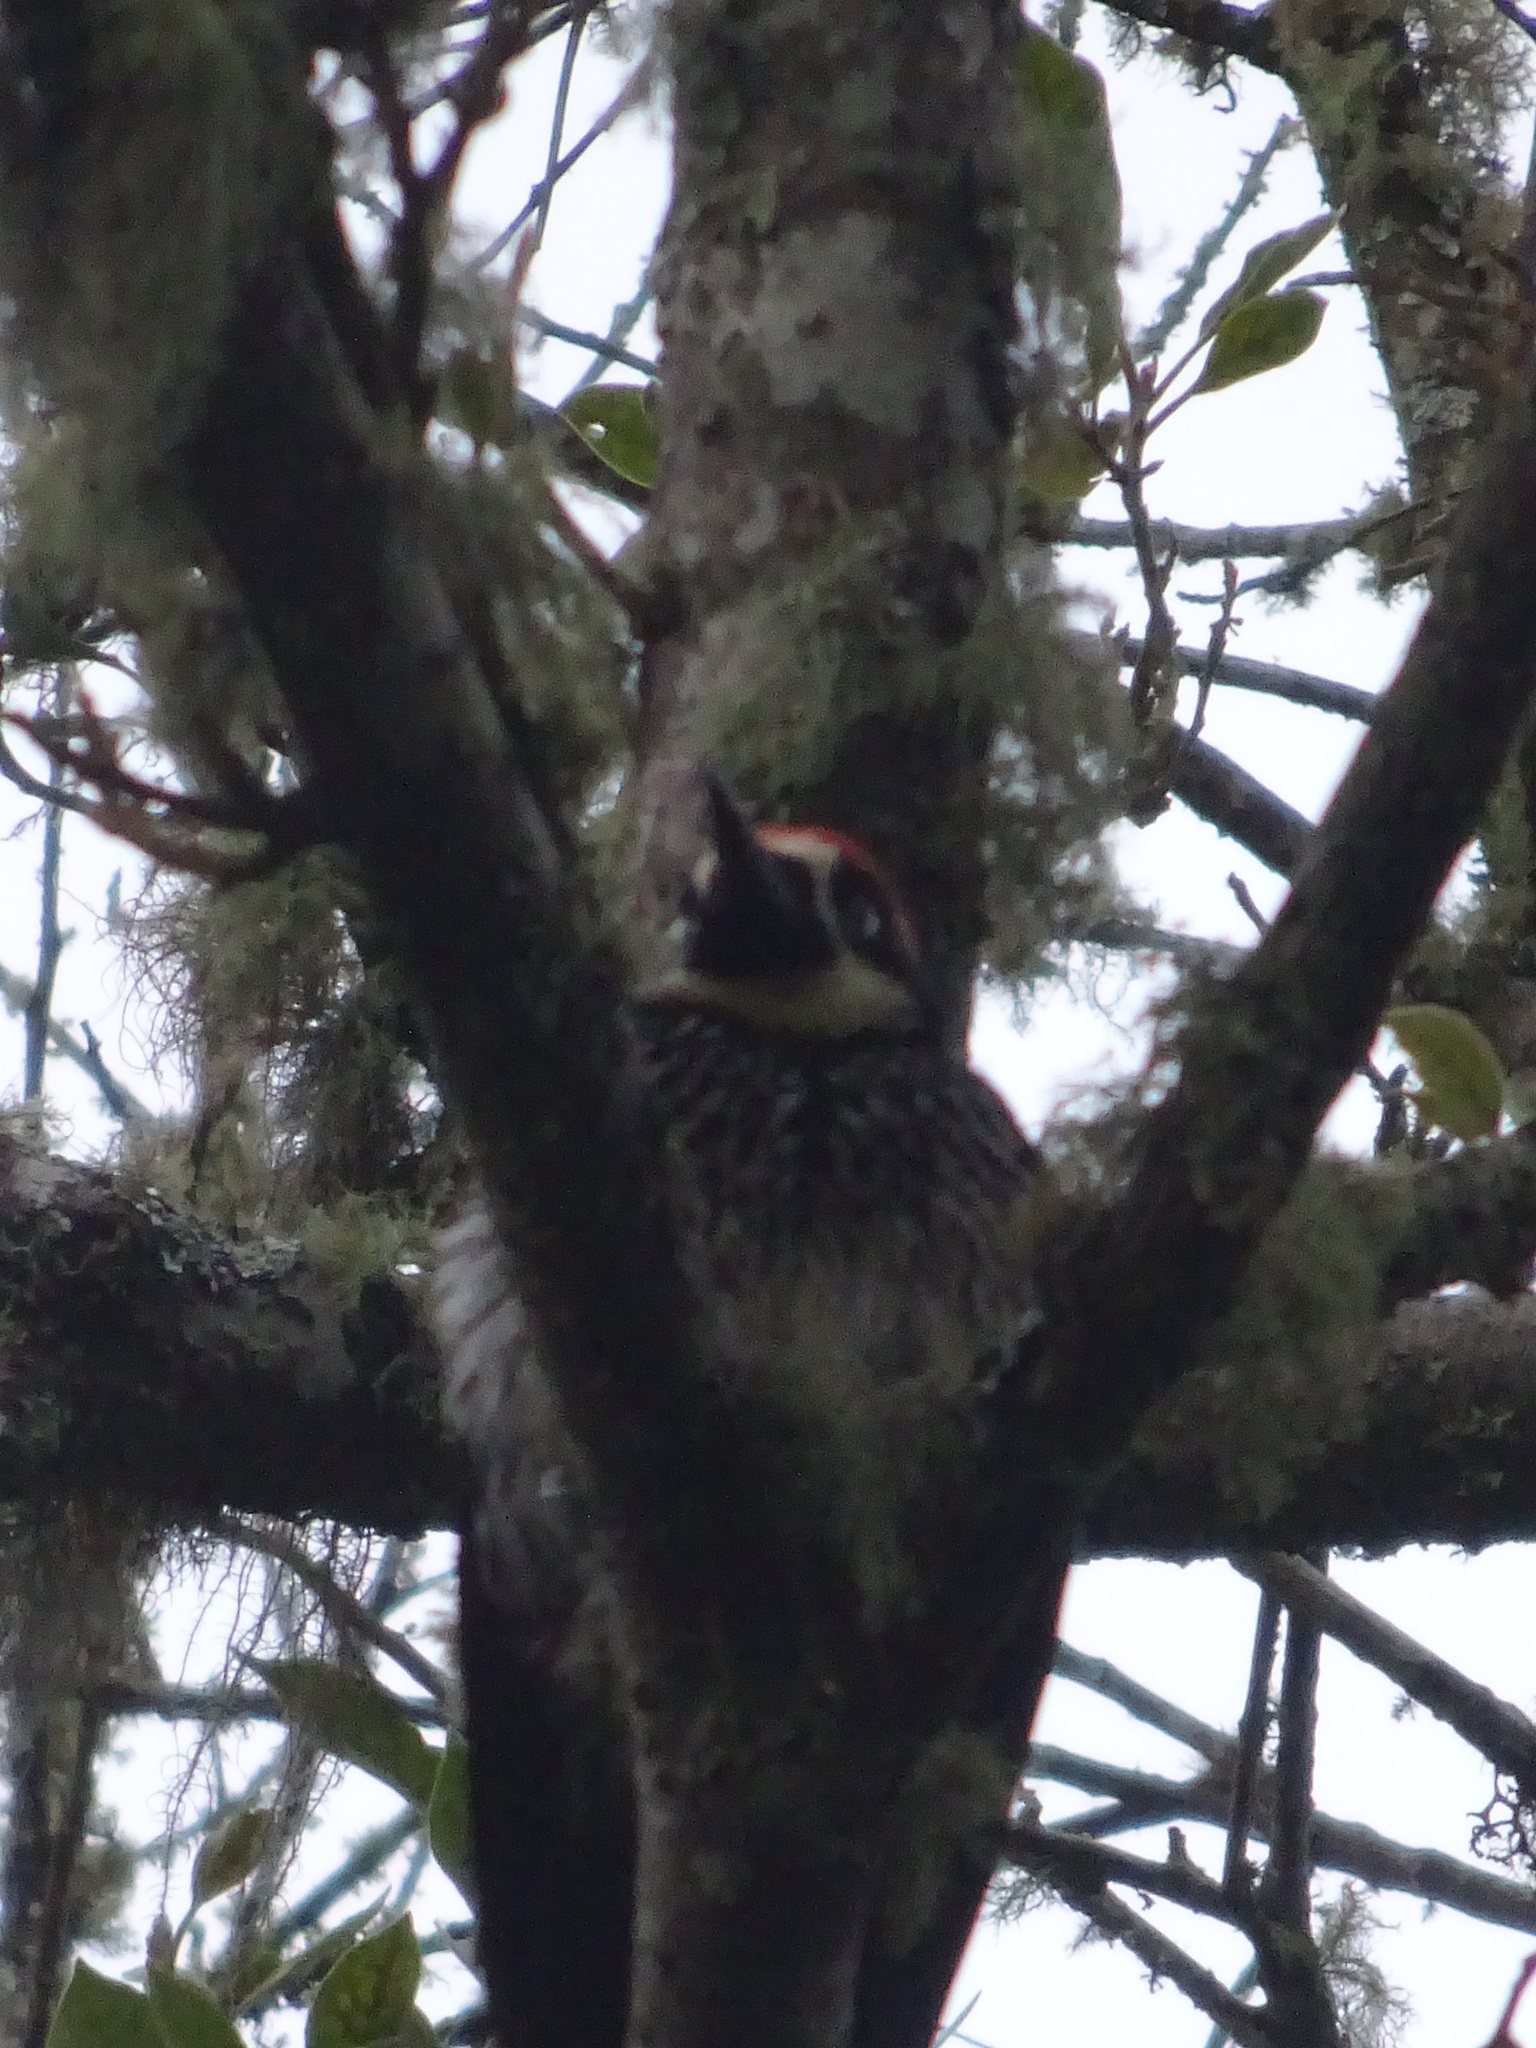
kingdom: Animalia
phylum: Chordata
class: Aves
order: Piciformes
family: Picidae
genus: Melanerpes
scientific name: Melanerpes formicivorus
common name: Acorn woodpecker
